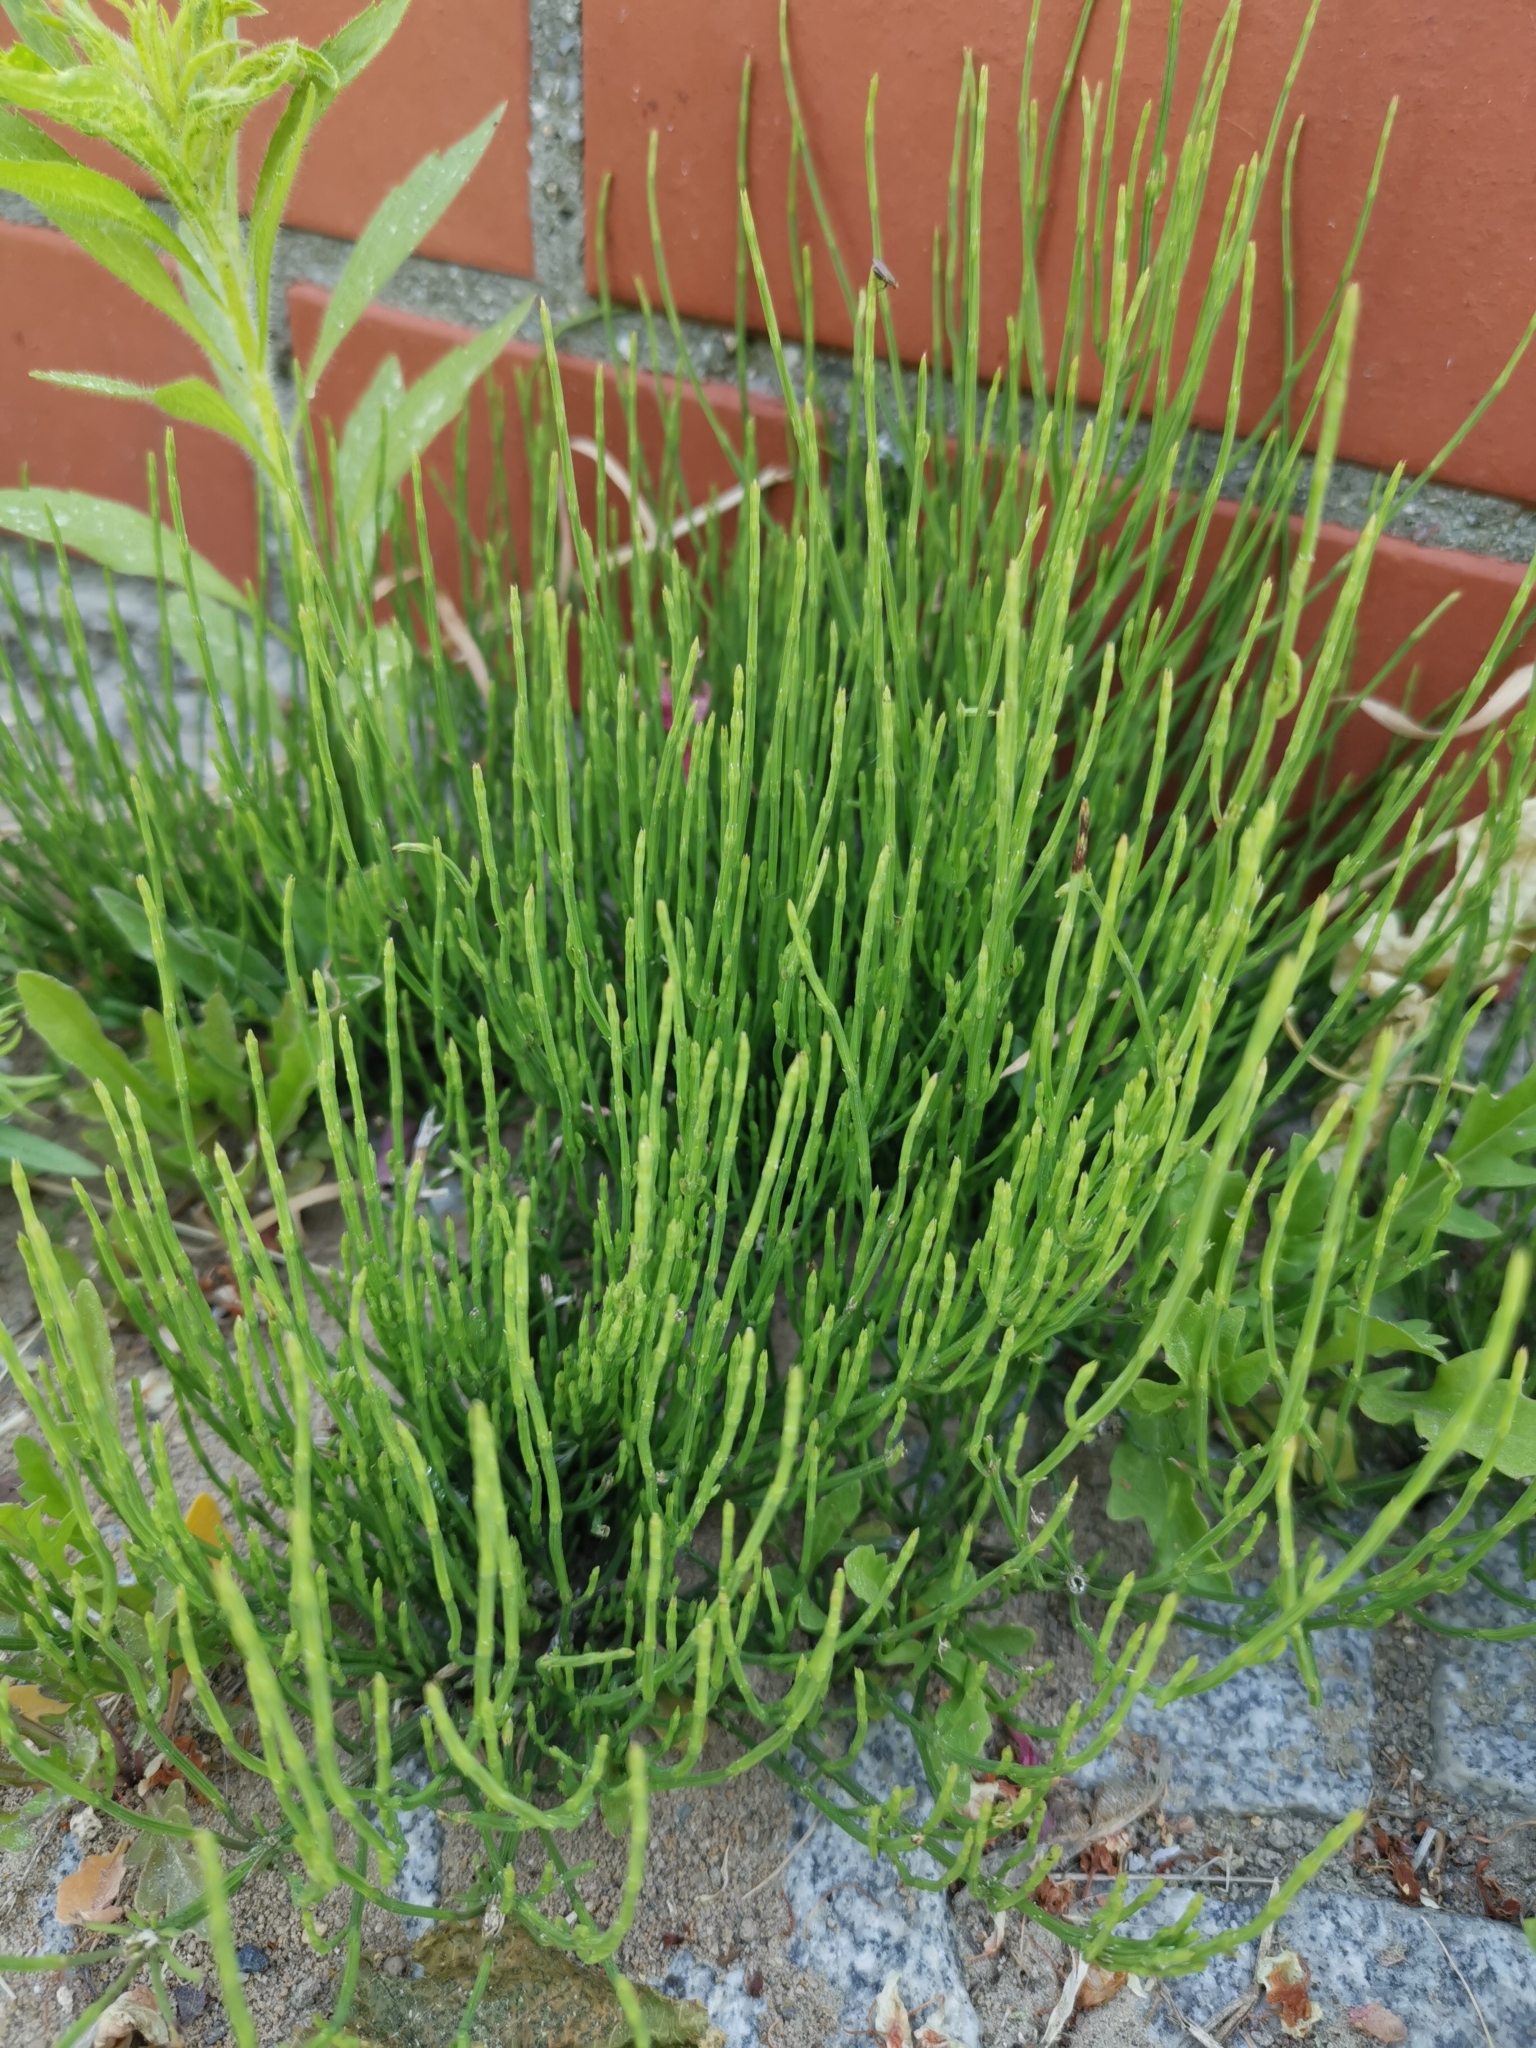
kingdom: Plantae
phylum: Tracheophyta
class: Polypodiopsida
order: Equisetales
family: Equisetaceae
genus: Equisetum
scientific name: Equisetum arvense
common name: Field horsetail
